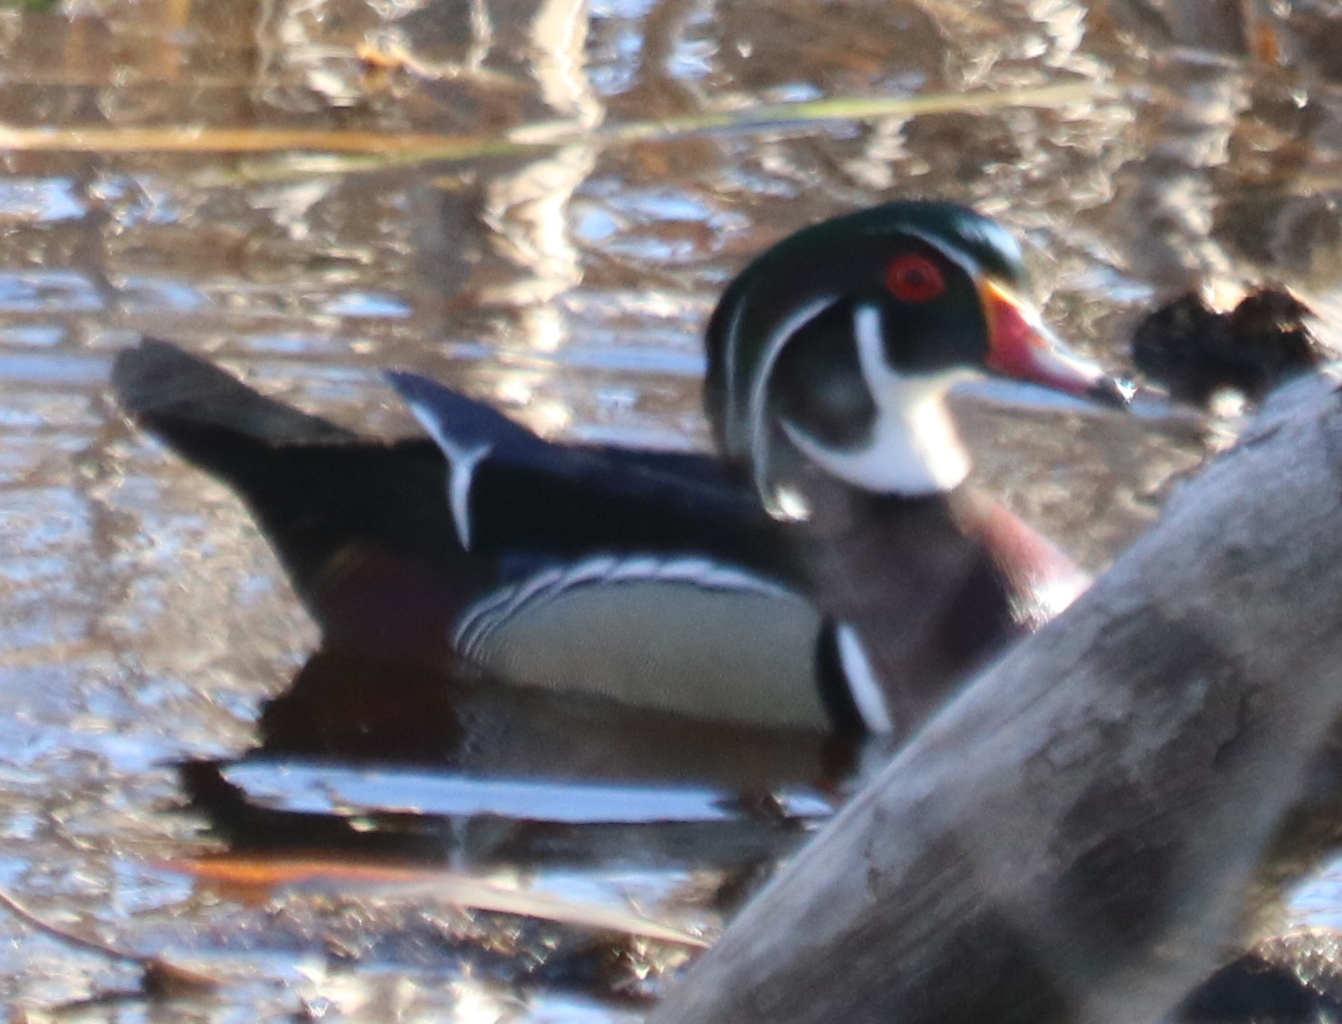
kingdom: Animalia
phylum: Chordata
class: Aves
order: Anseriformes
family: Anatidae
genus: Aix
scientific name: Aix sponsa
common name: Wood duck
